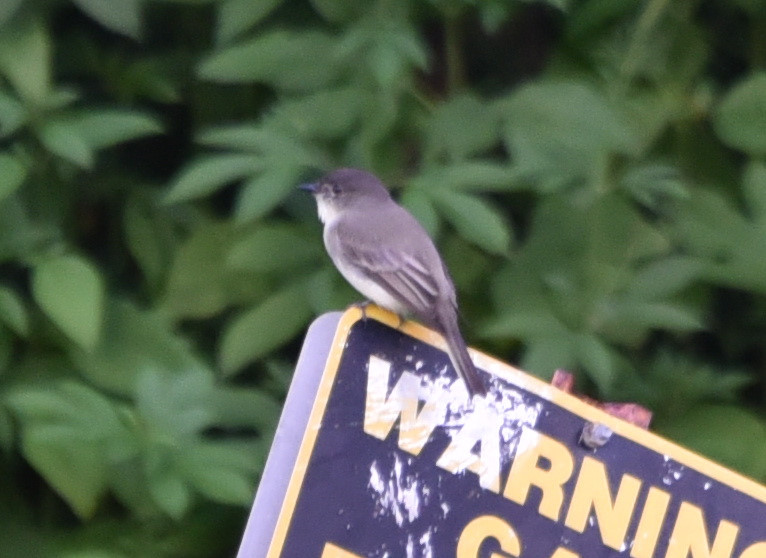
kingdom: Animalia
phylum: Chordata
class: Aves
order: Passeriformes
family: Tyrannidae
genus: Sayornis
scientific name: Sayornis phoebe
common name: Eastern phoebe
